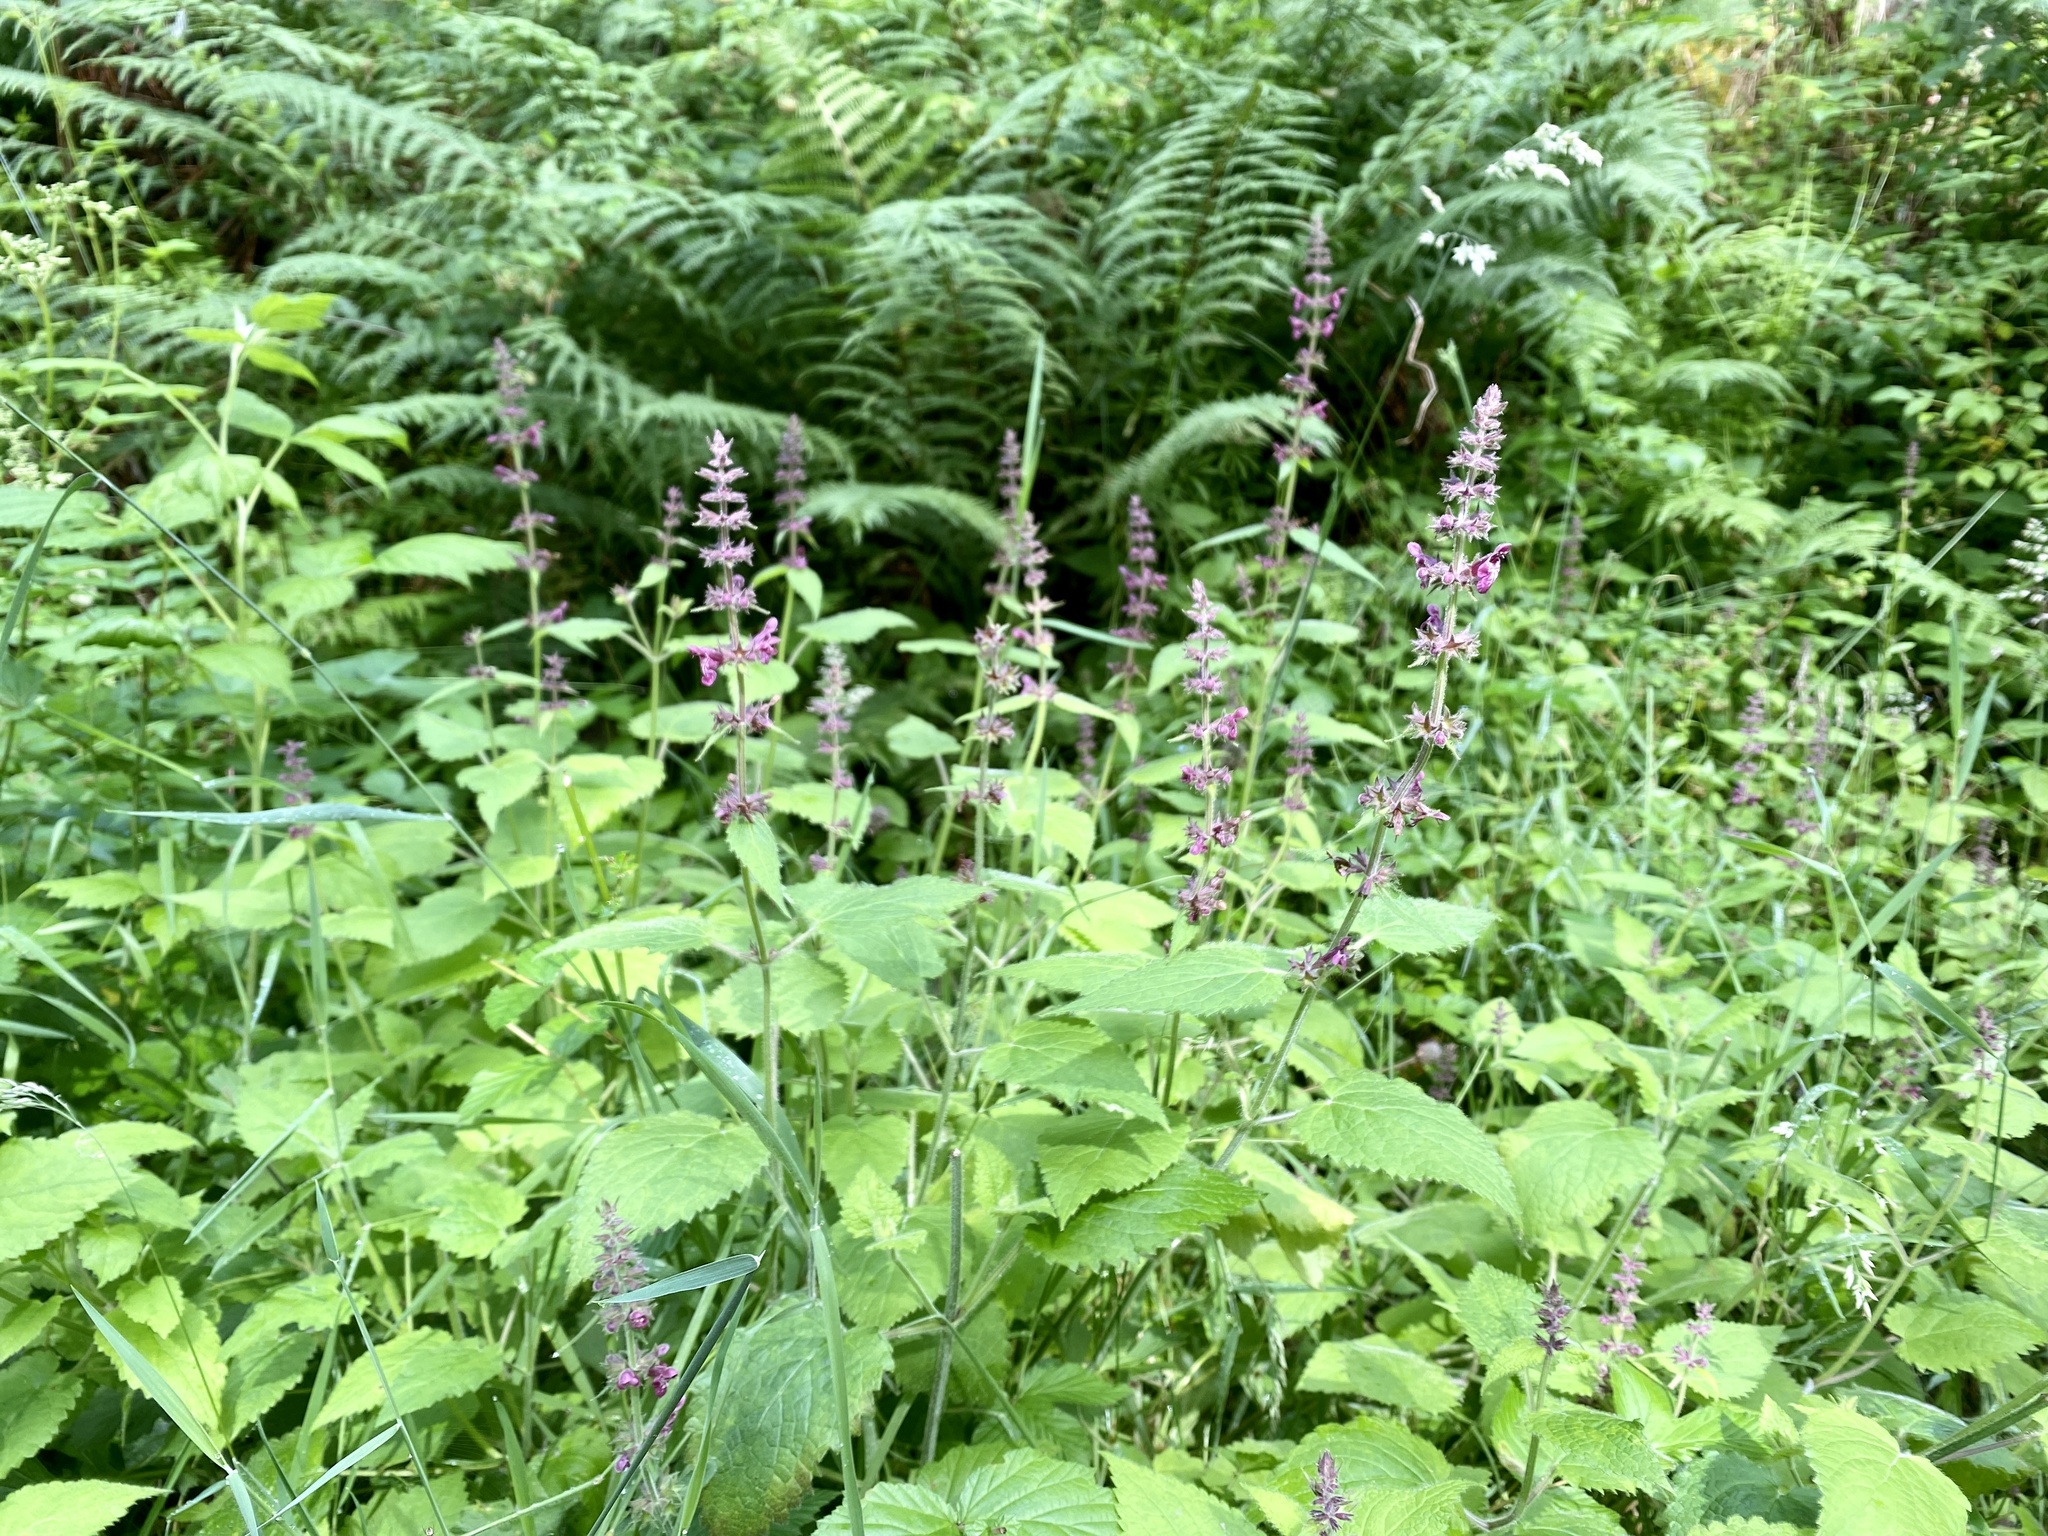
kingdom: Plantae
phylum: Tracheophyta
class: Magnoliopsida
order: Lamiales
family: Lamiaceae
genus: Stachys
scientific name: Stachys sylvatica
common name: Hedge woundwort
